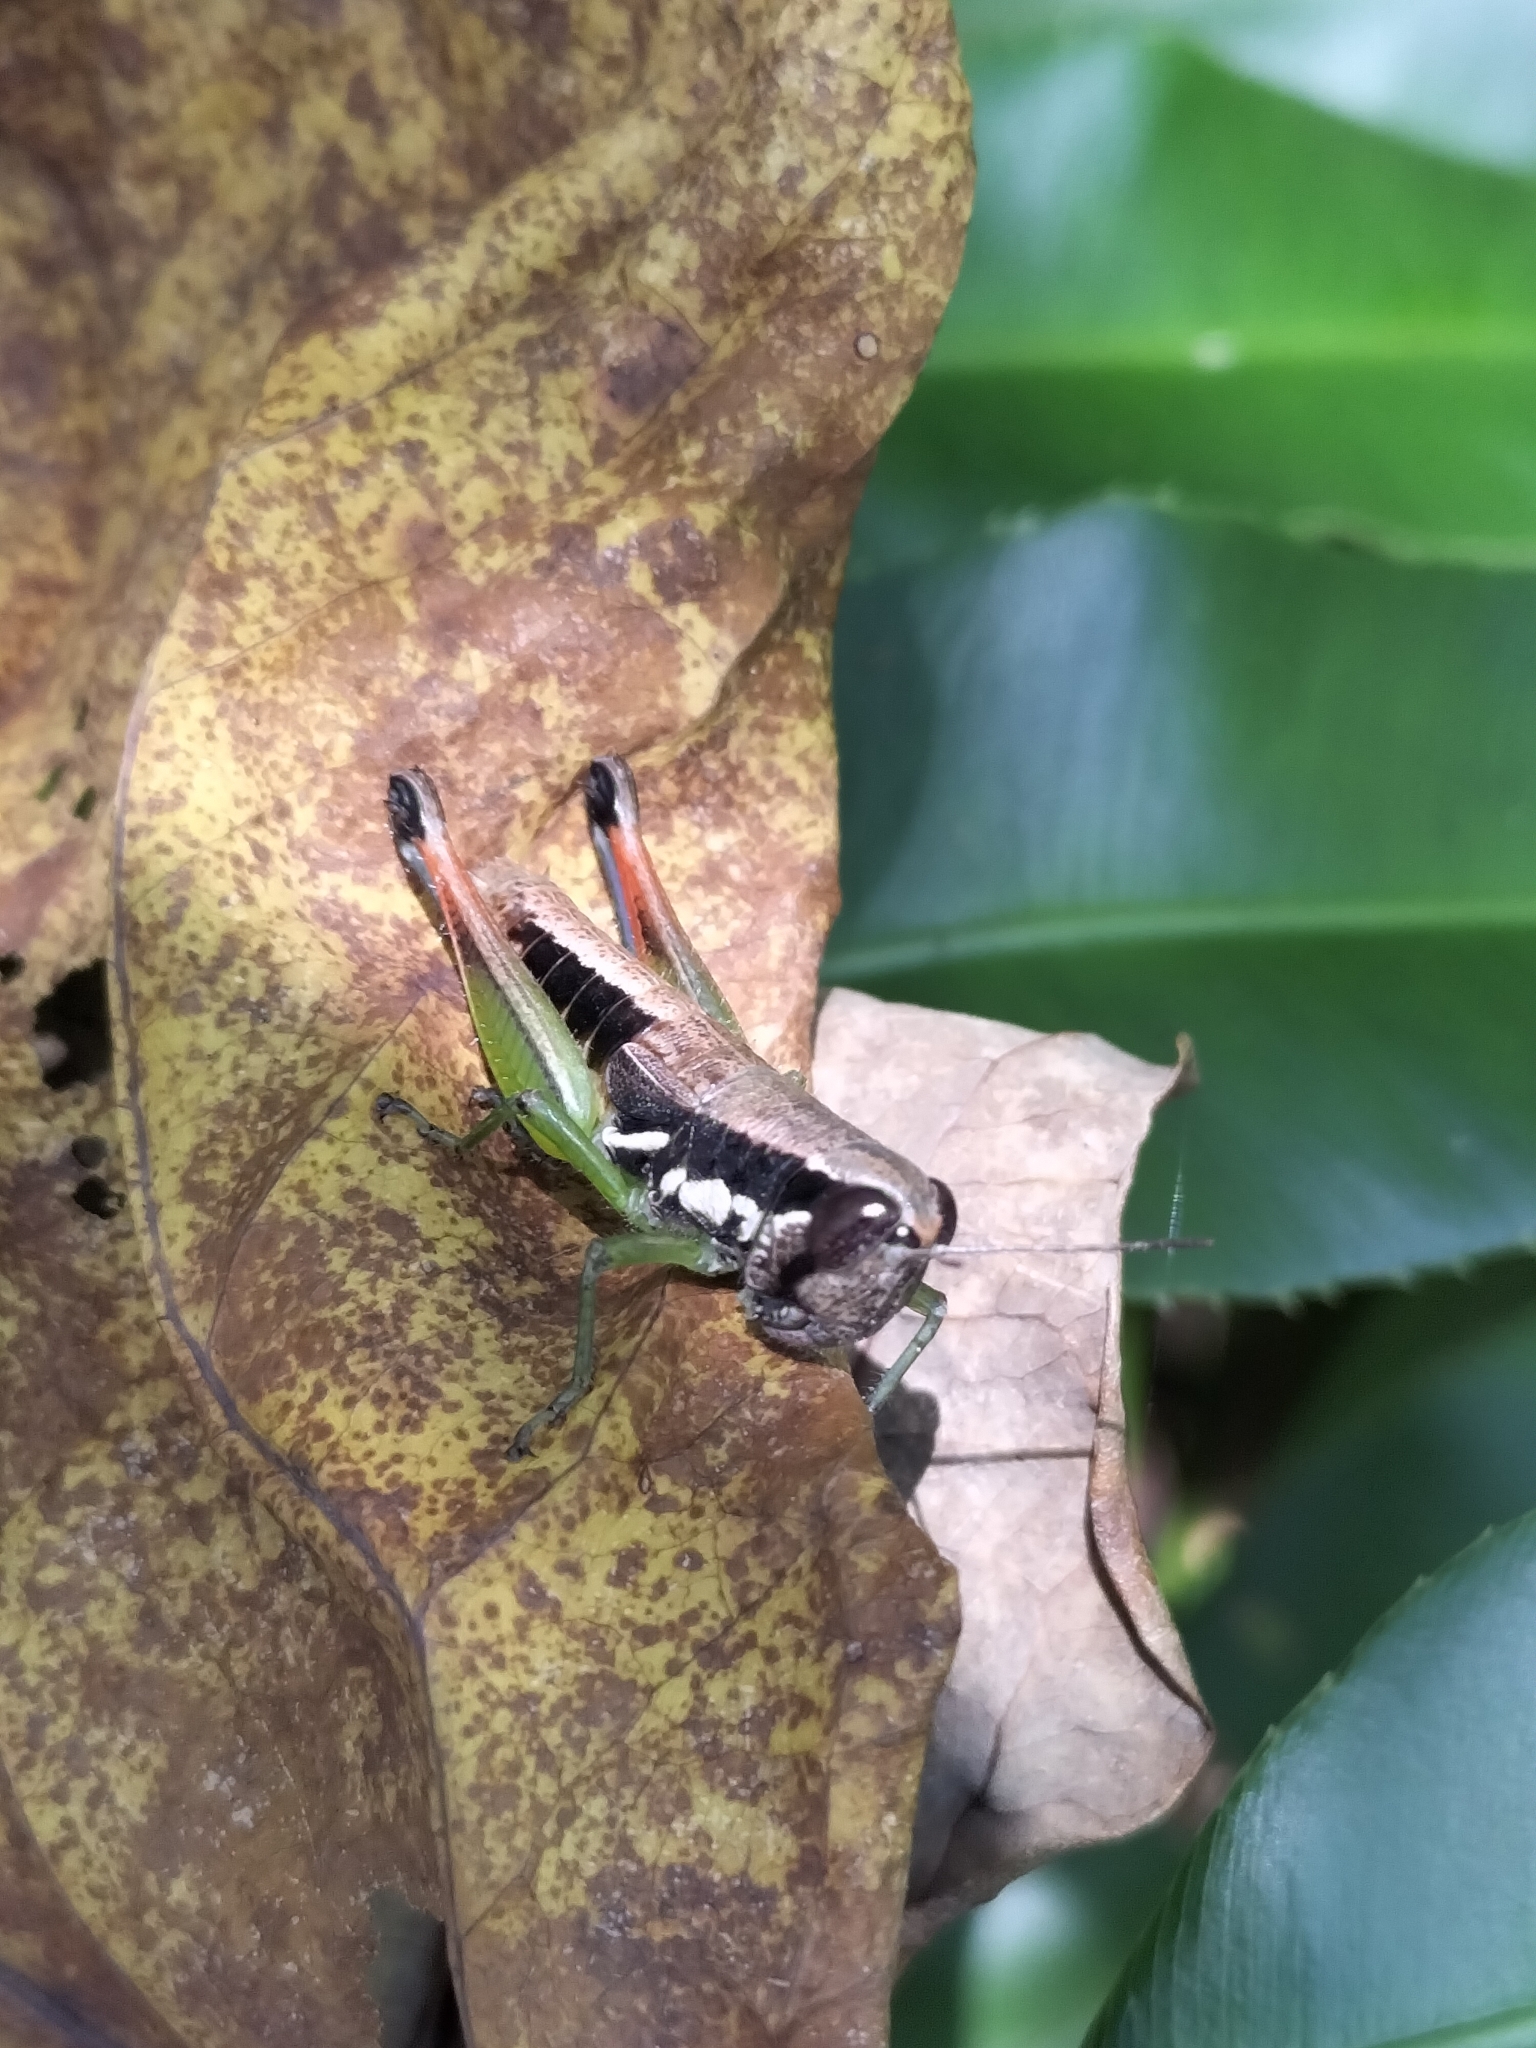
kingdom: Animalia
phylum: Arthropoda
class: Insecta
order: Orthoptera
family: Acrididae
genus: Methiola
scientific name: Methiola picta
